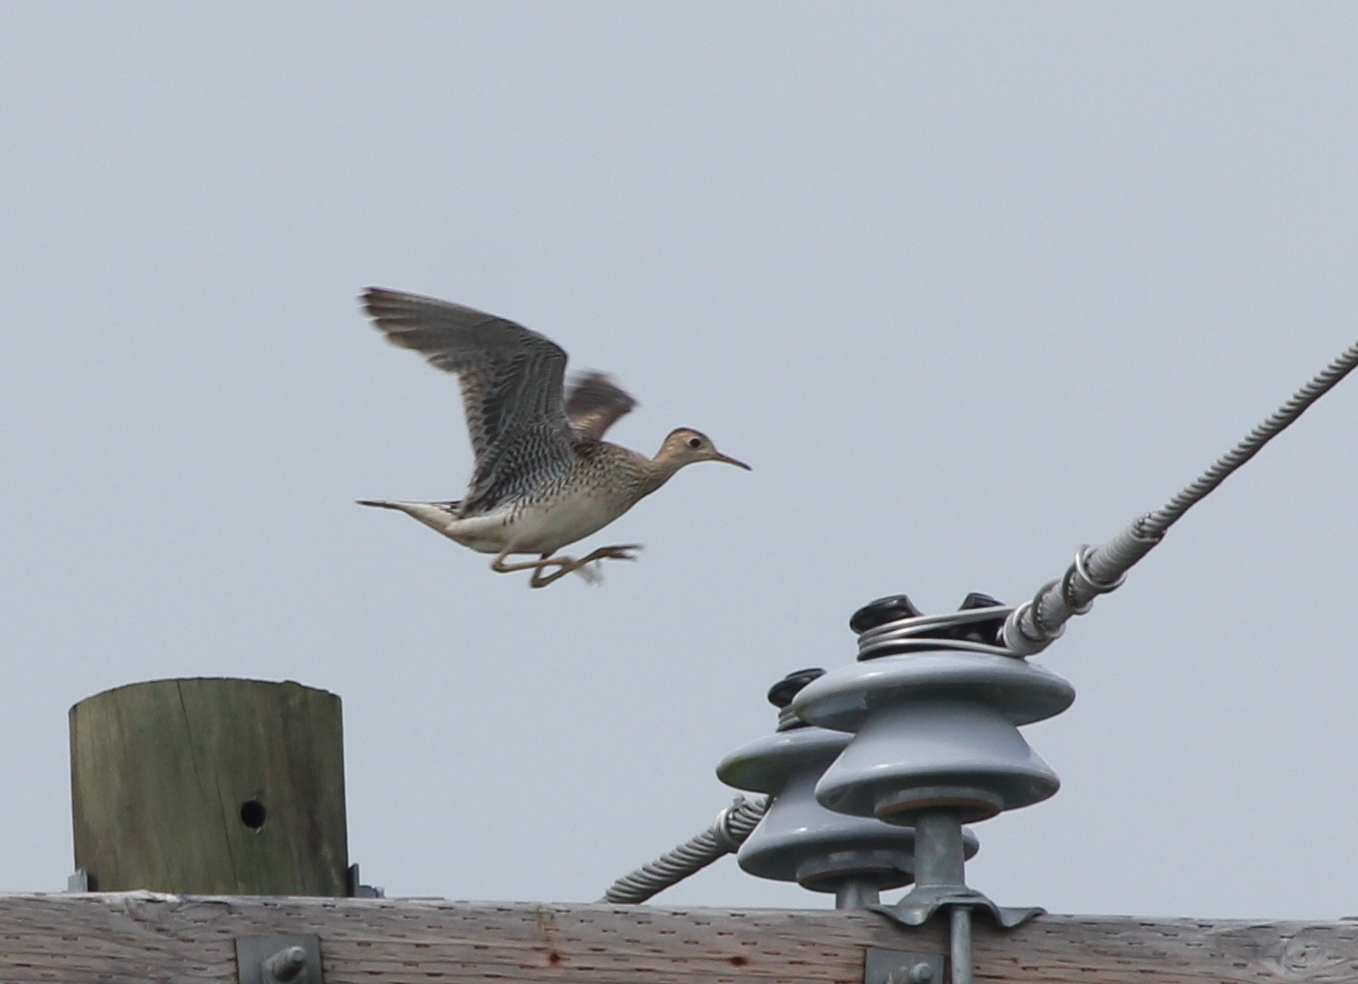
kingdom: Animalia
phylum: Chordata
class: Aves
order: Charadriiformes
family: Scolopacidae
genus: Bartramia
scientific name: Bartramia longicauda
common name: Upland sandpiper
